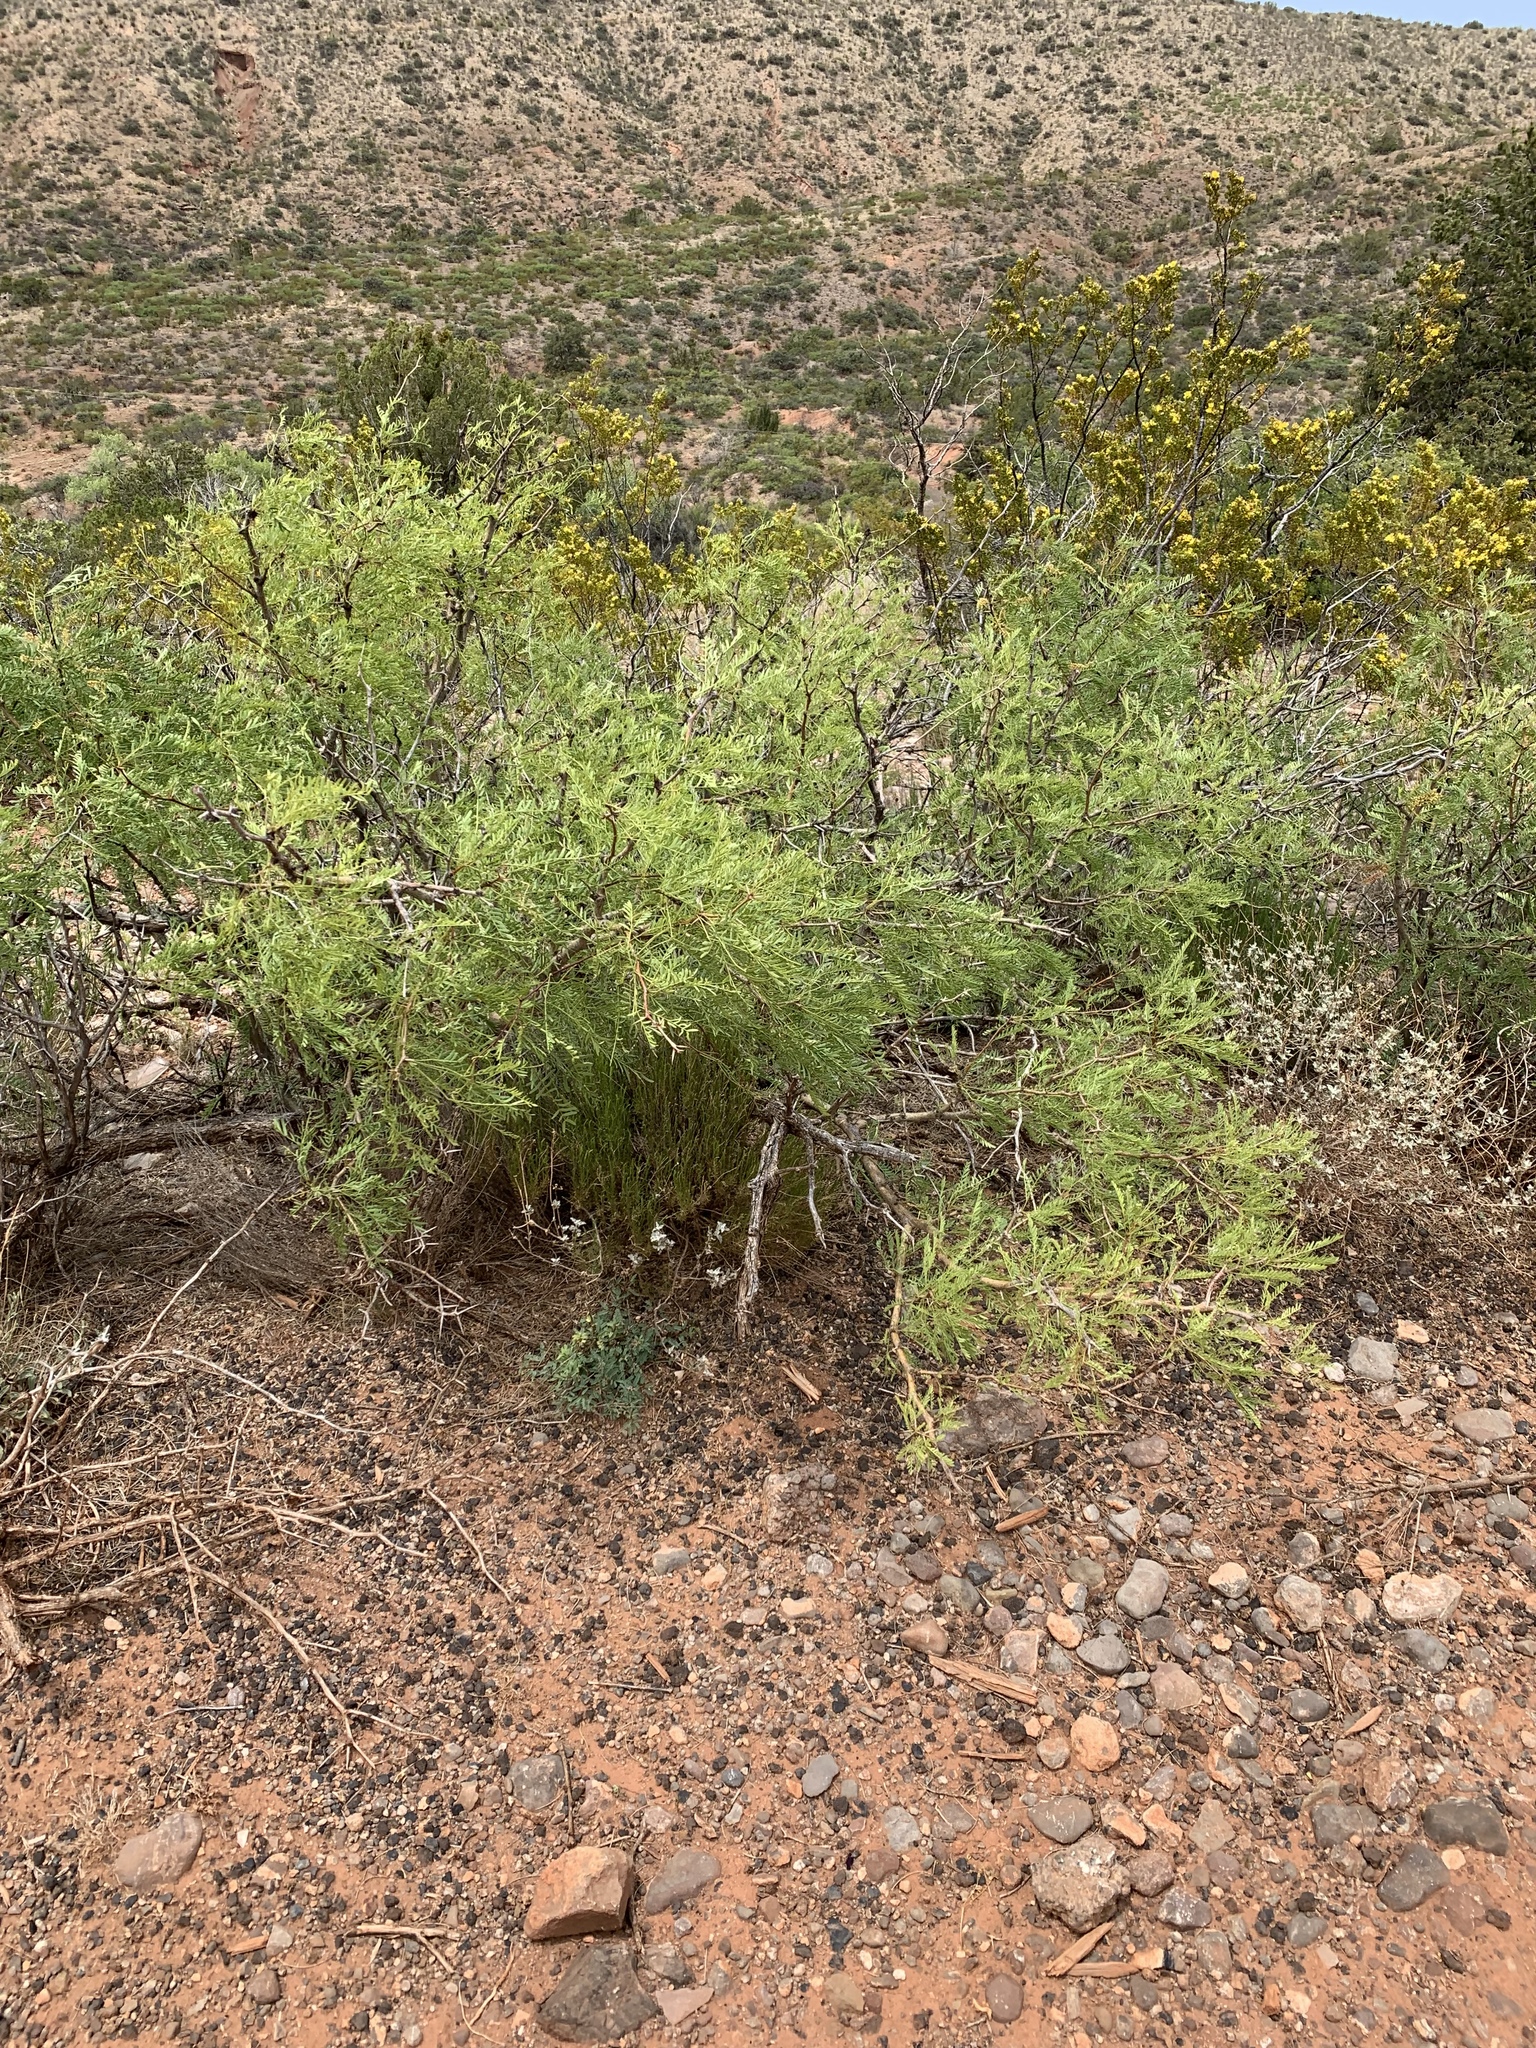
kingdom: Plantae
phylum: Tracheophyta
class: Magnoliopsida
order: Fabales
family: Fabaceae
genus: Prosopis
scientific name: Prosopis glandulosa
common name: Honey mesquite
